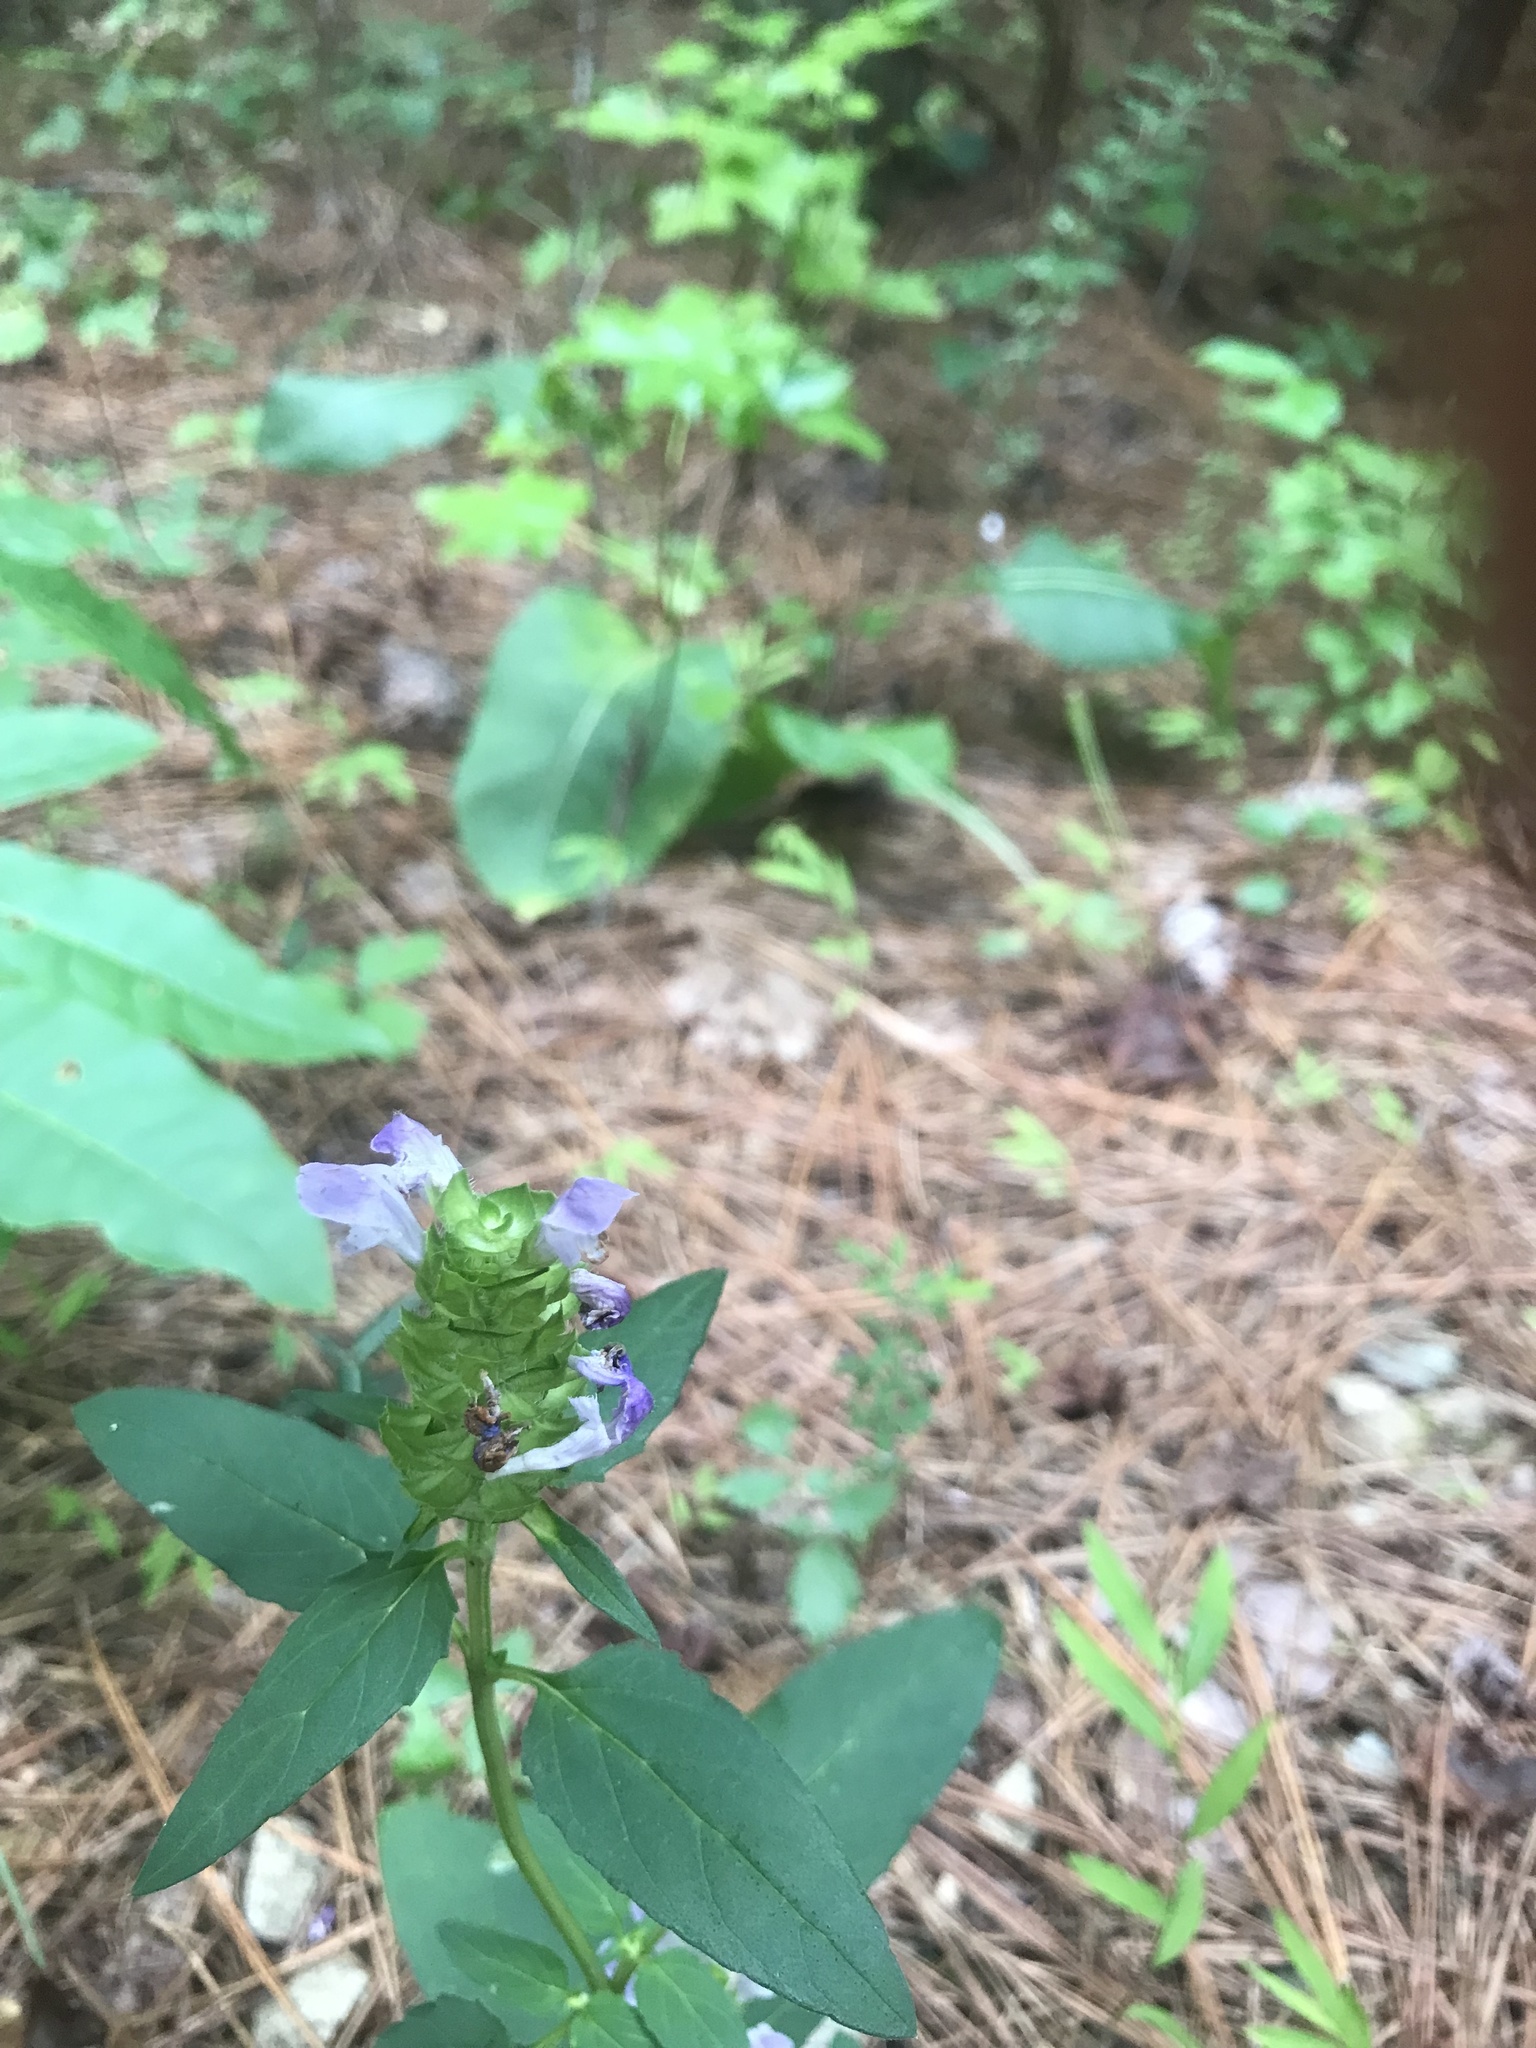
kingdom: Plantae
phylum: Tracheophyta
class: Magnoliopsida
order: Lamiales
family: Lamiaceae
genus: Prunella
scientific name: Prunella vulgaris
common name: Heal-all
